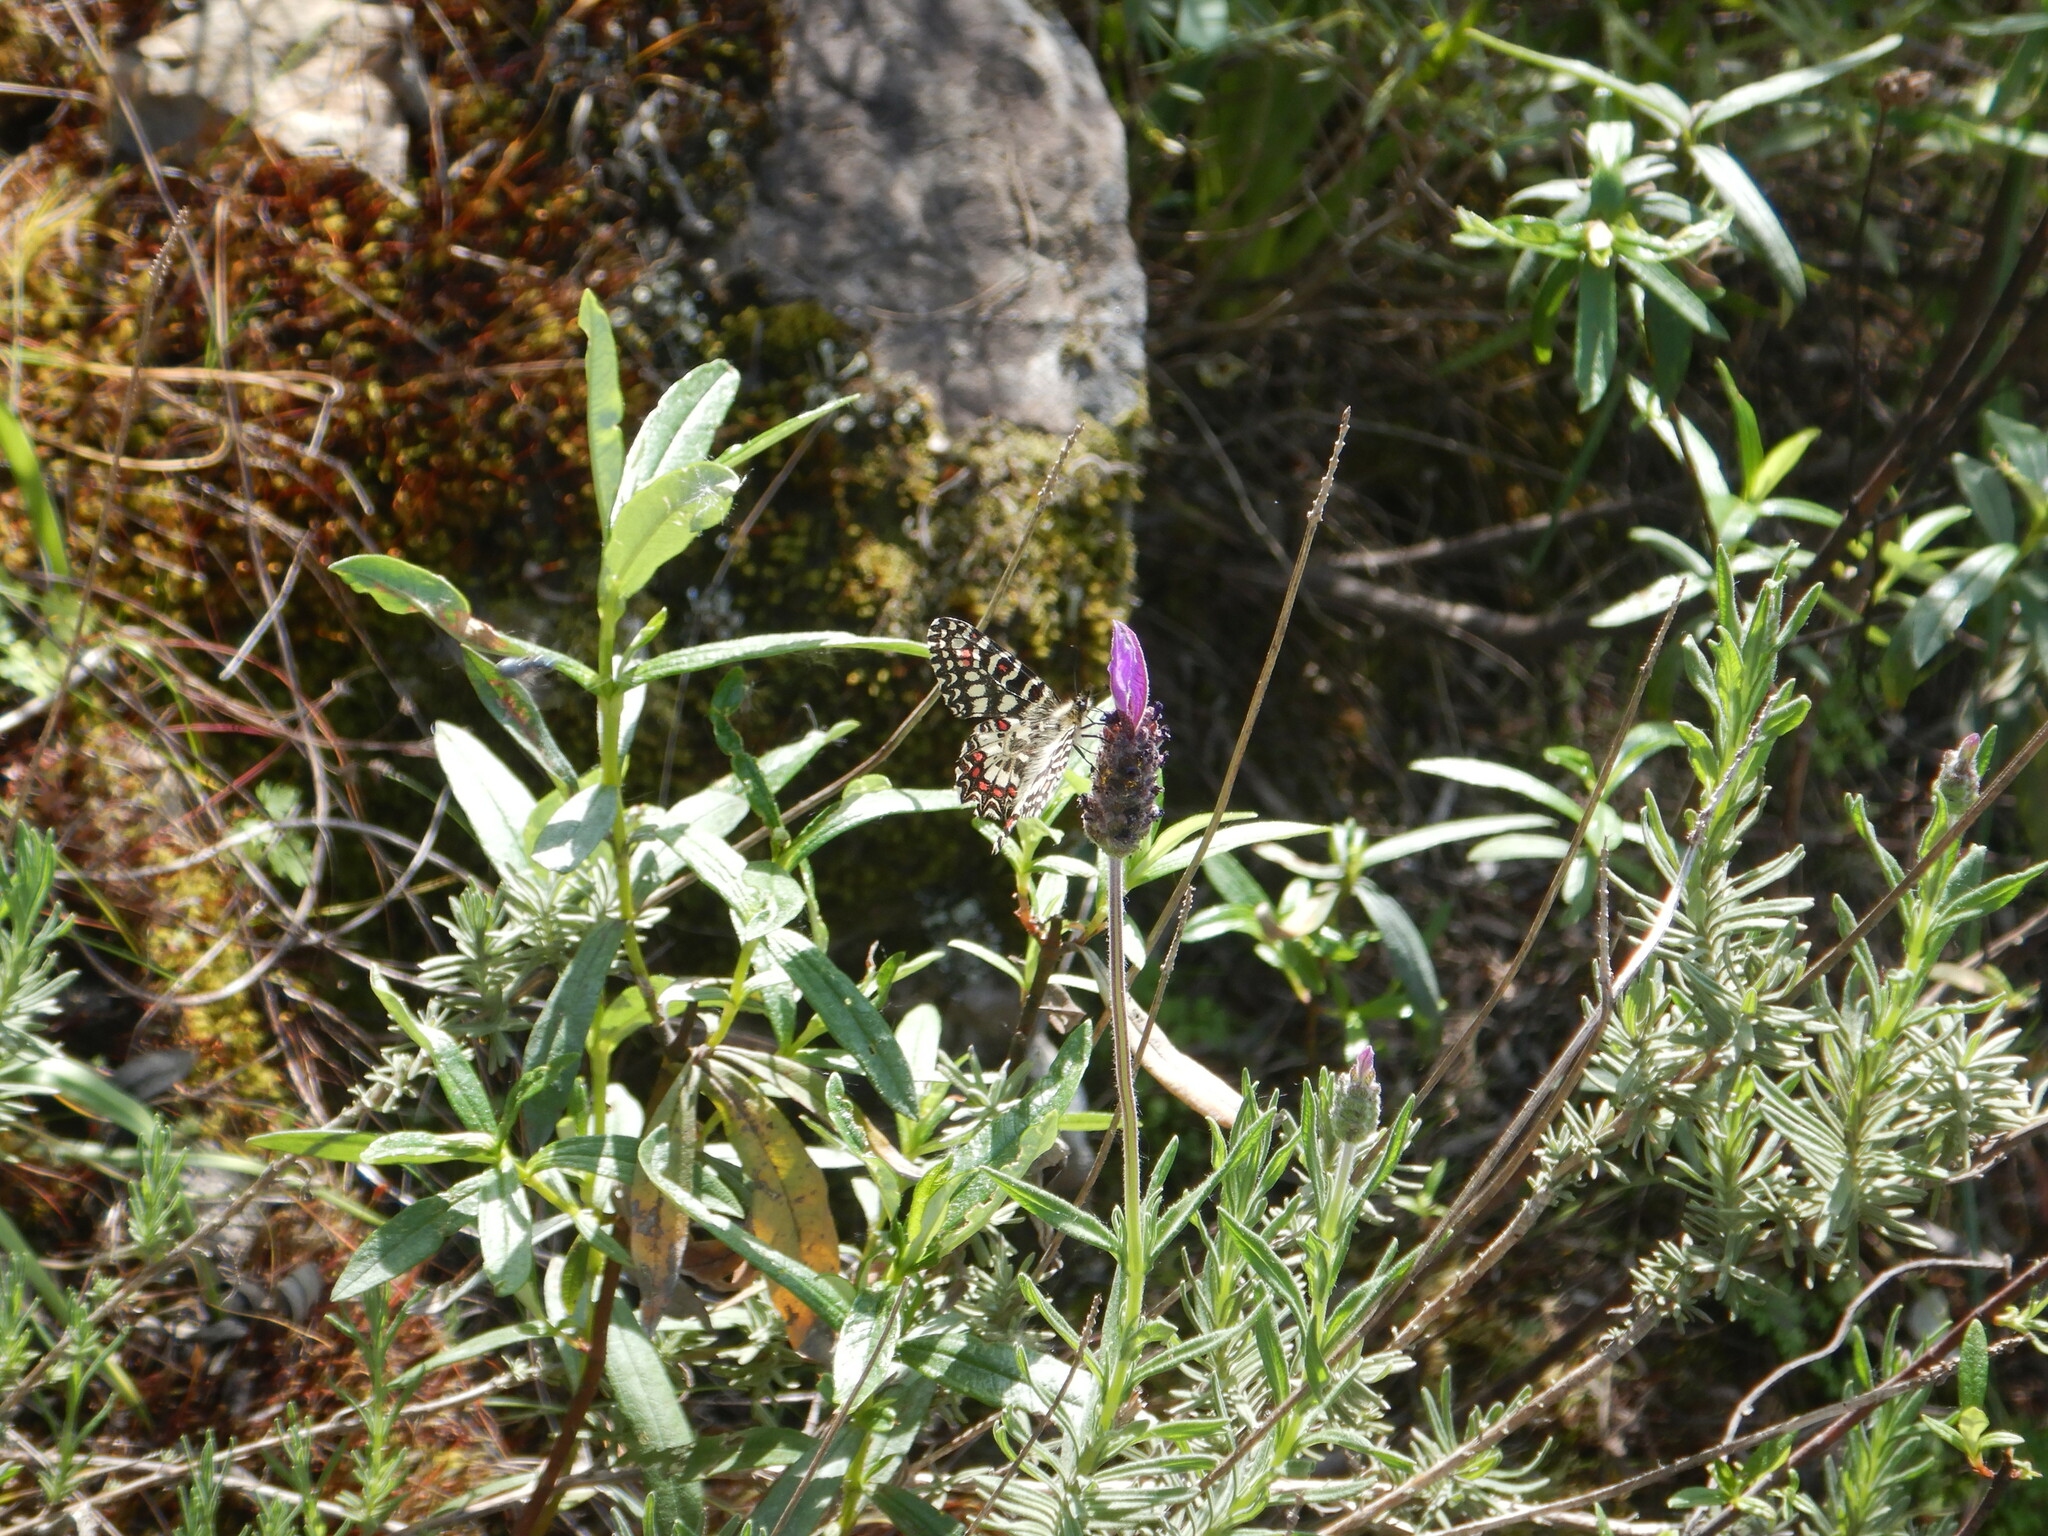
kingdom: Animalia
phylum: Arthropoda
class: Insecta
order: Lepidoptera
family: Papilionidae
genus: Zerynthia
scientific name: Zerynthia rumina
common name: Spanish festoon
